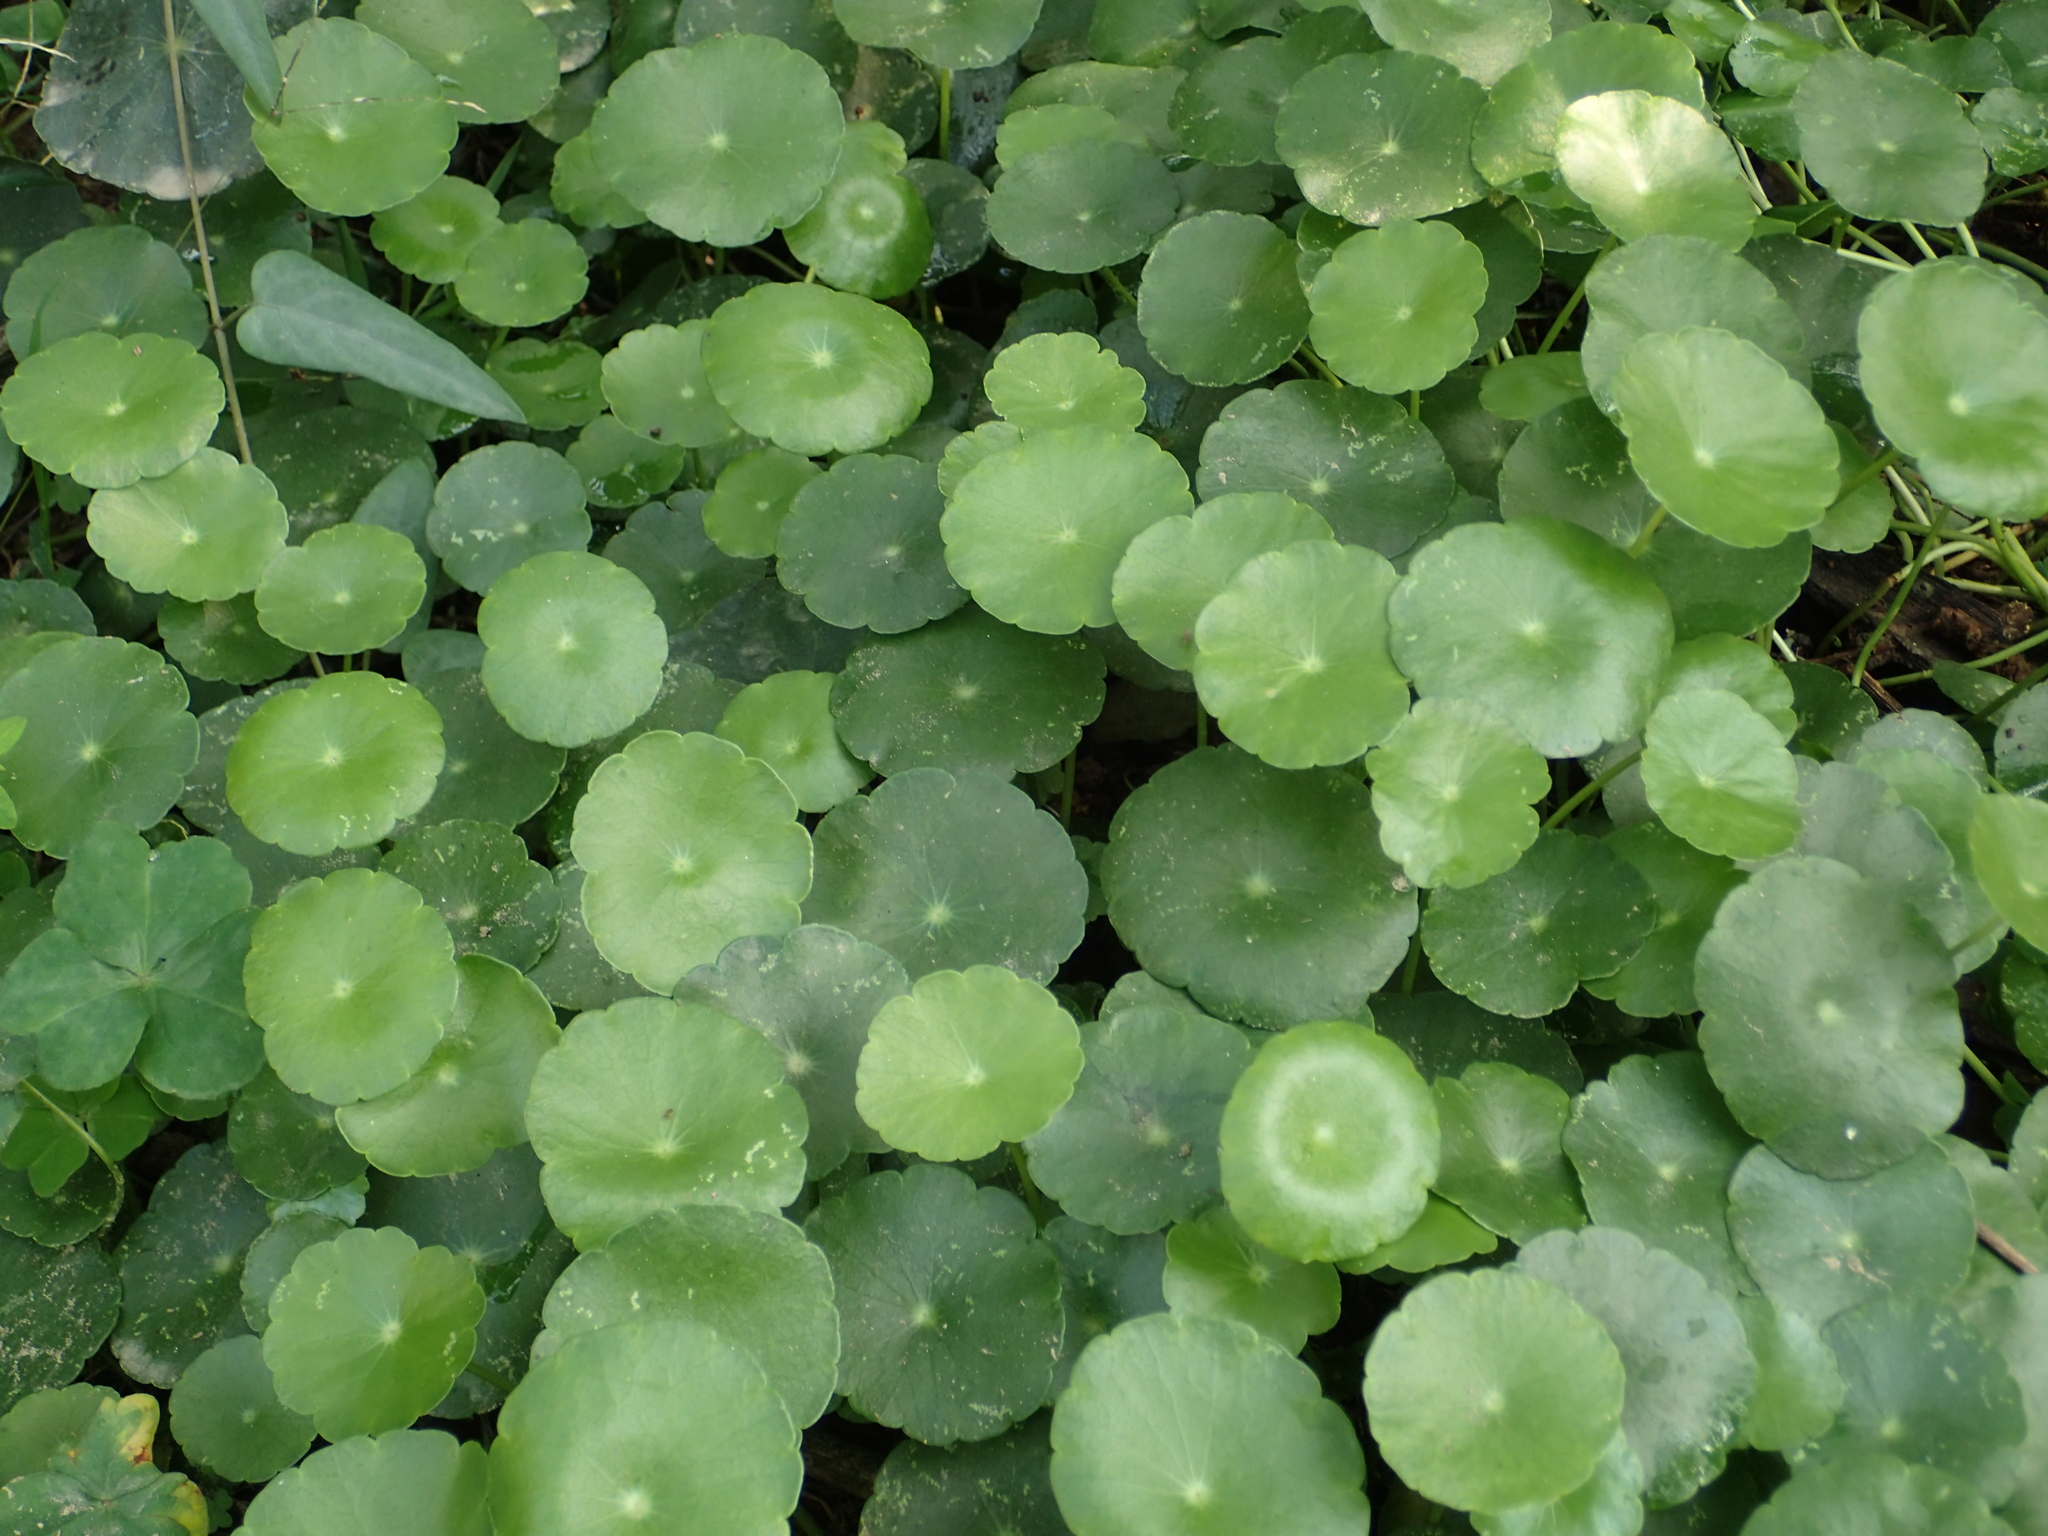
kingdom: Plantae
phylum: Tracheophyta
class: Magnoliopsida
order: Apiales
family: Araliaceae
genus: Hydrocotyle
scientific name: Hydrocotyle verticillata
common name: Whorled marshpennywort
